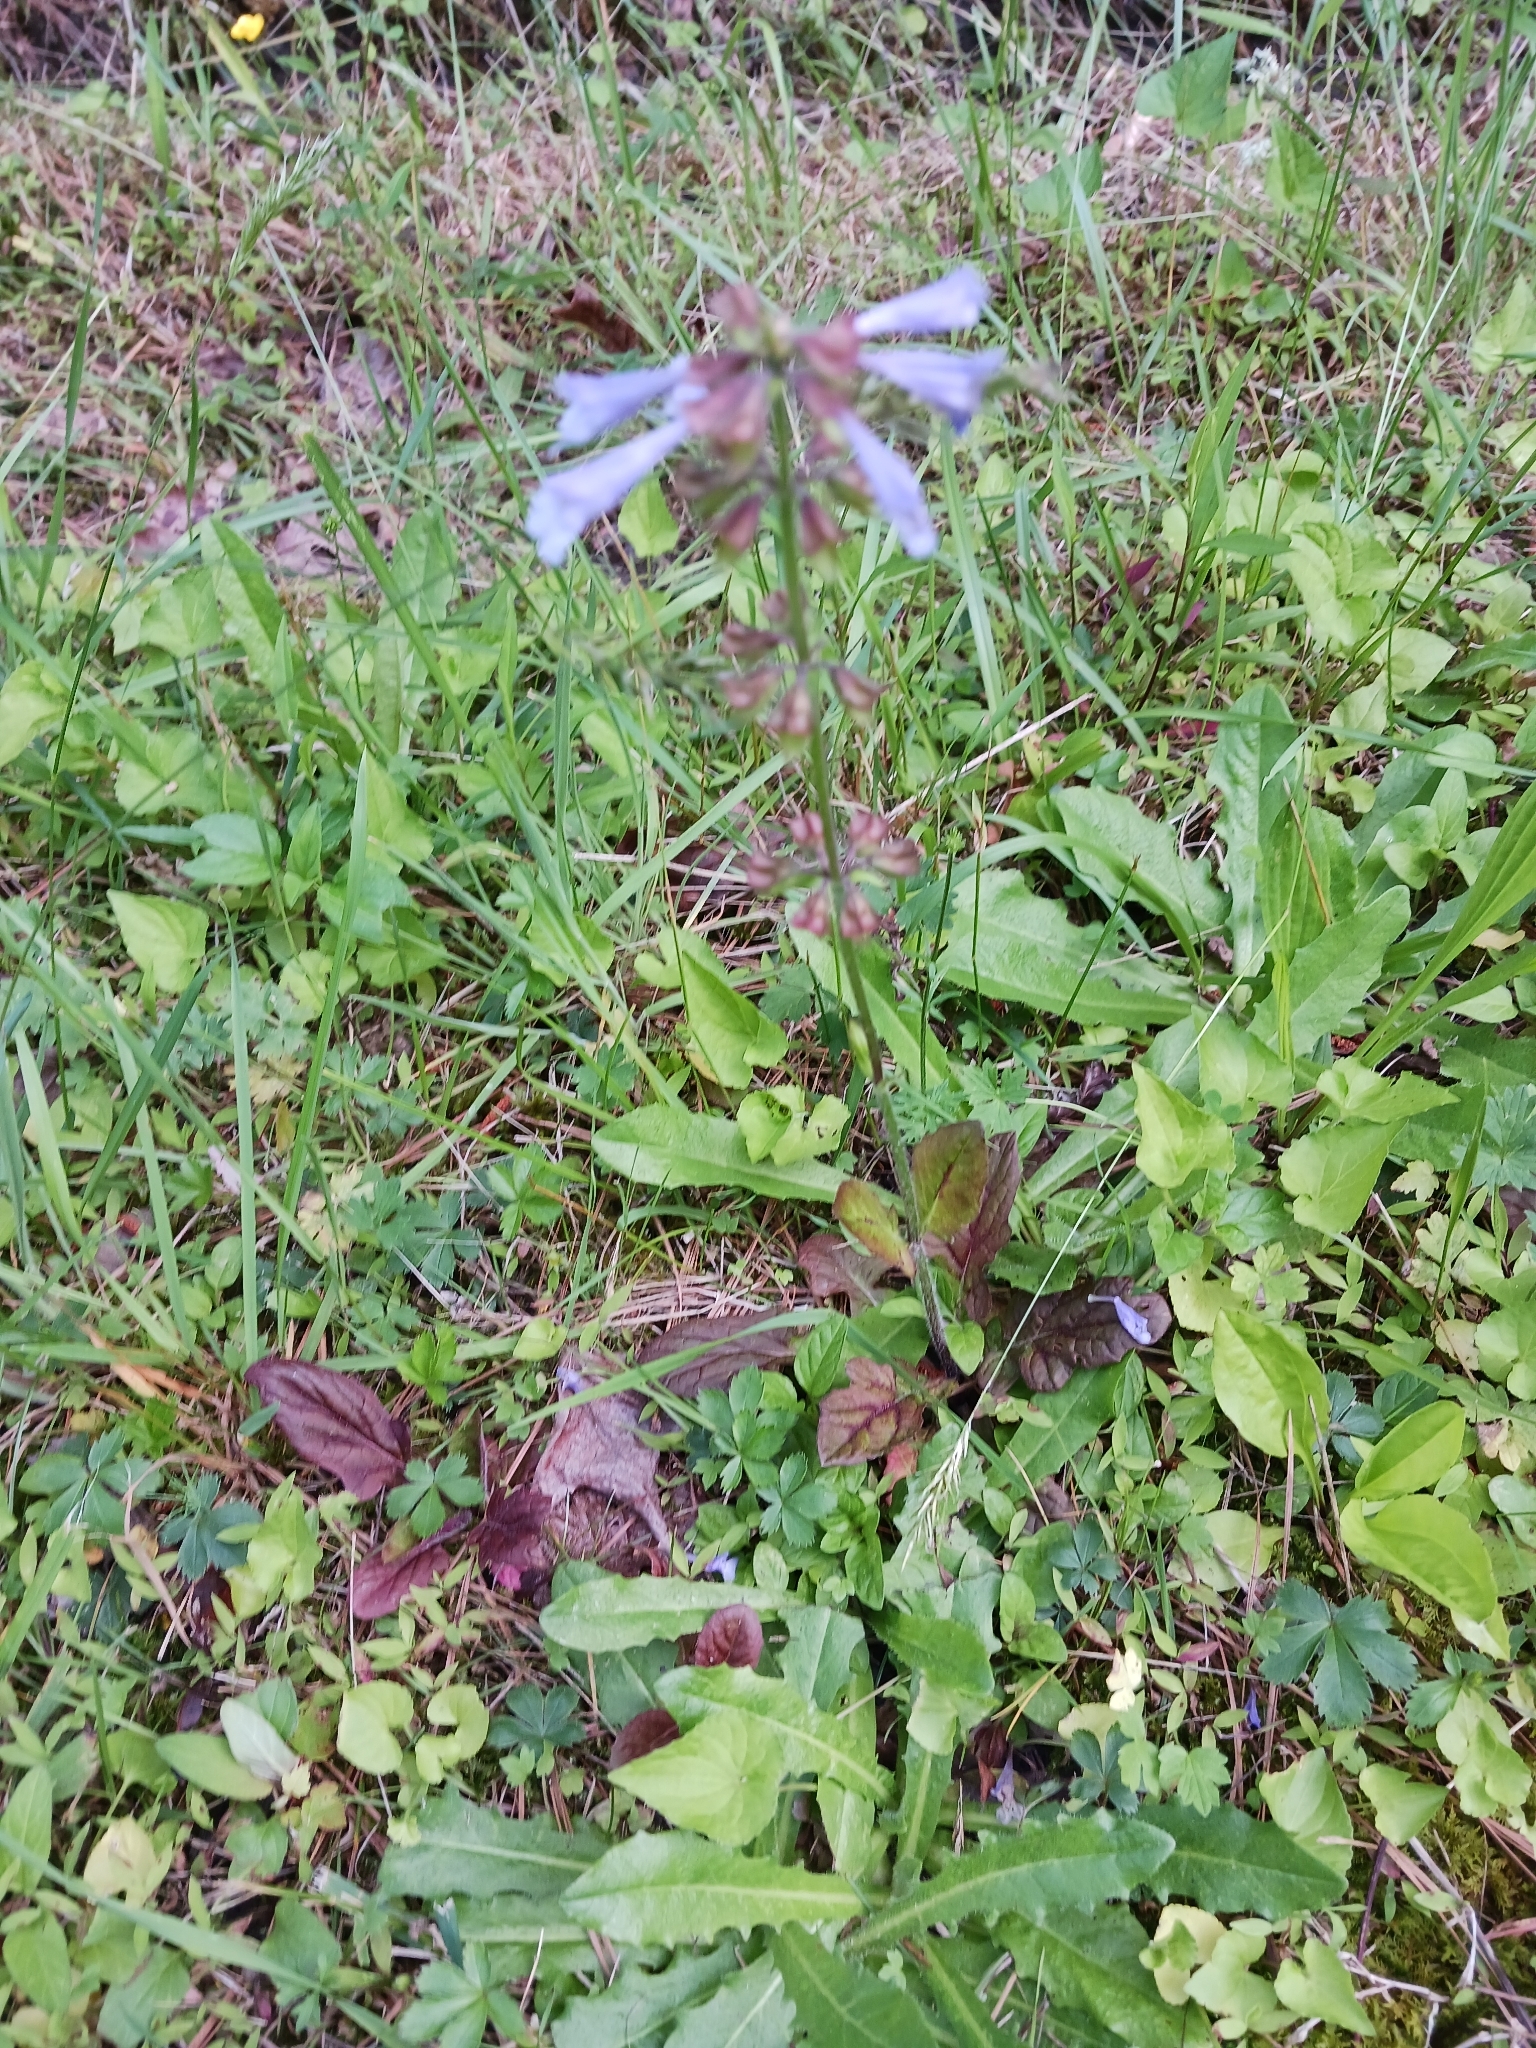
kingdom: Plantae
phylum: Tracheophyta
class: Magnoliopsida
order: Lamiales
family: Lamiaceae
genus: Salvia
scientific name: Salvia lyrata
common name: Cancerweed
